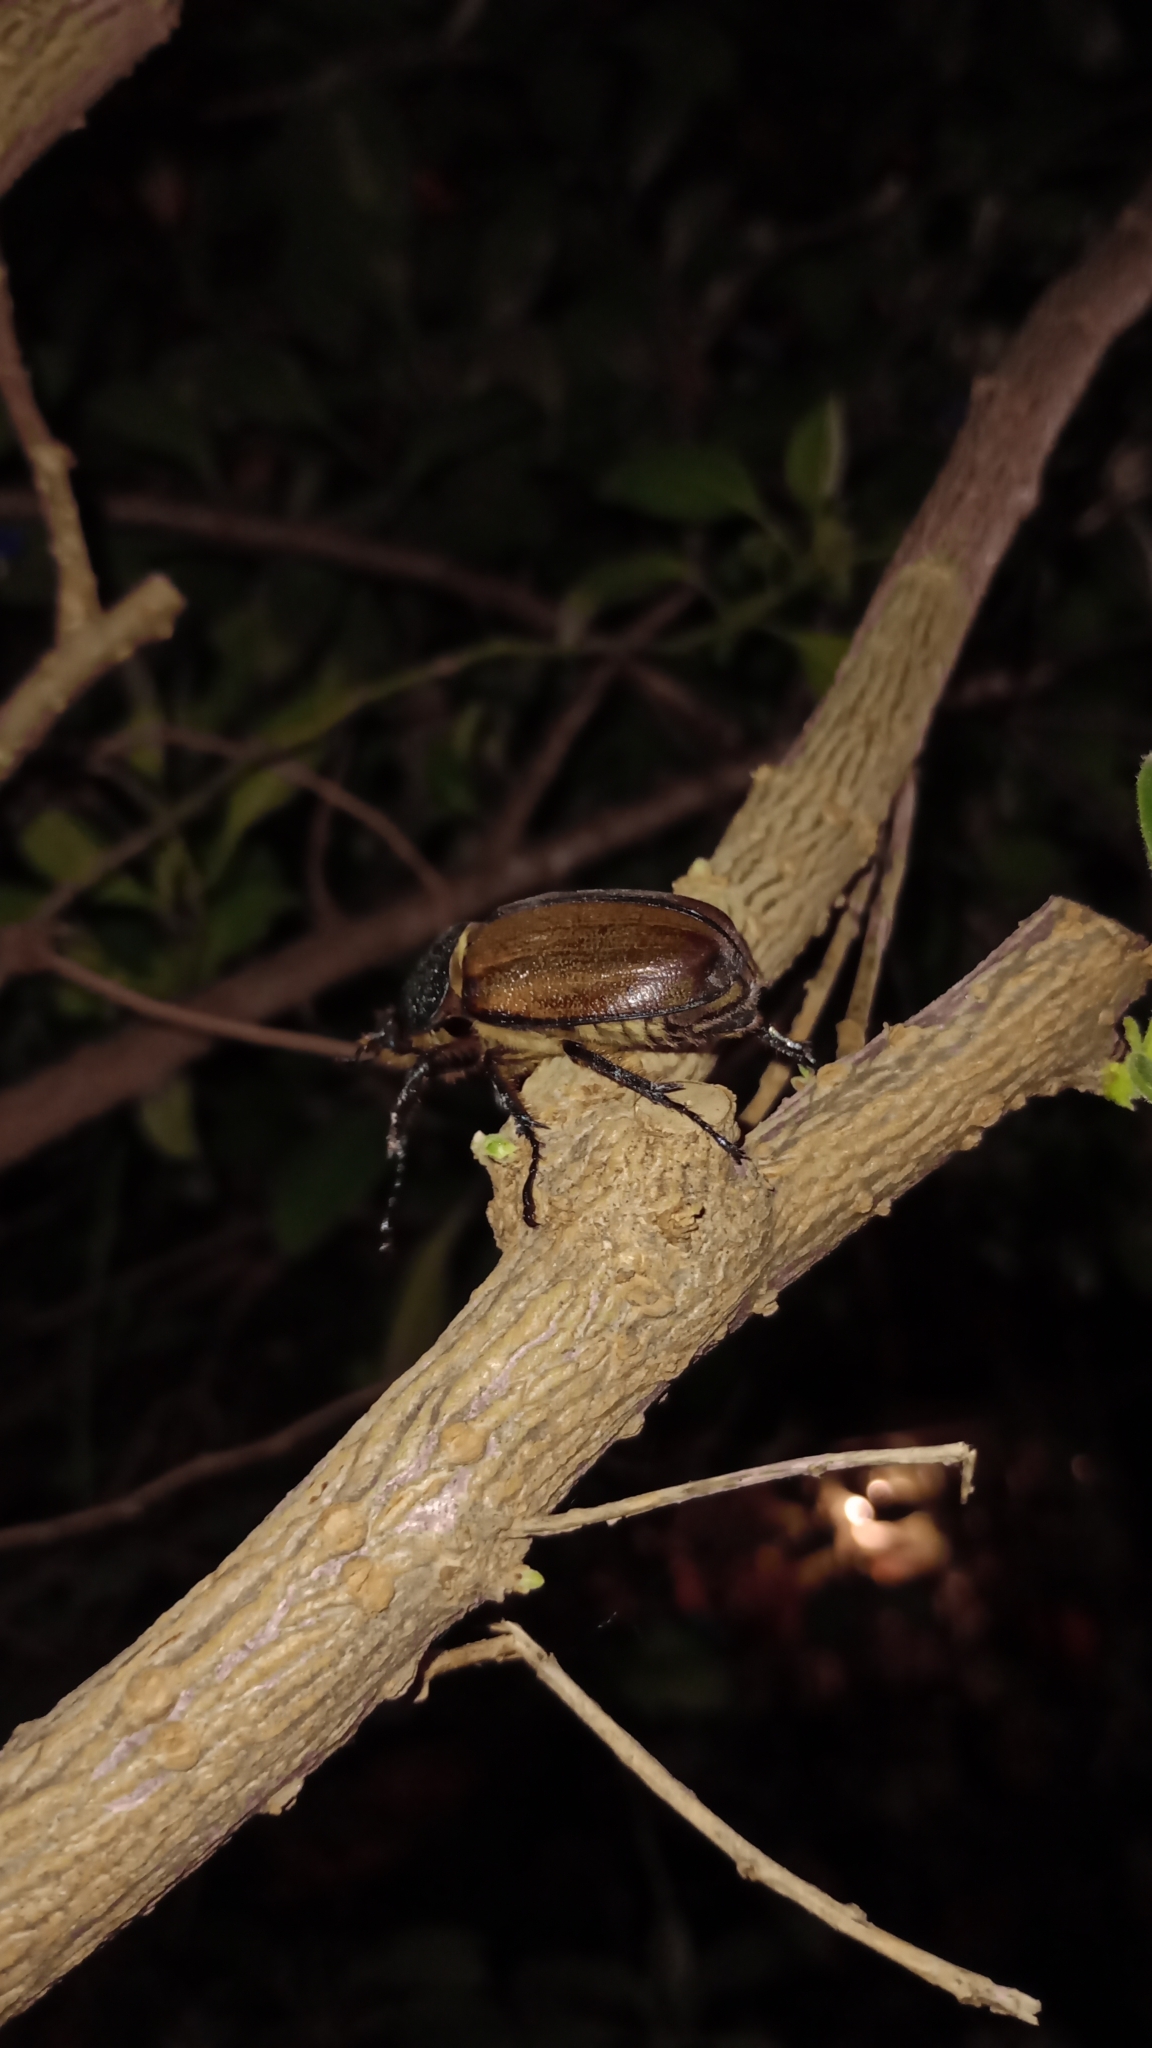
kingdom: Animalia
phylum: Arthropoda
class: Insecta
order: Coleoptera
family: Scarabaeidae
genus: Golofa
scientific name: Golofa pelagon
